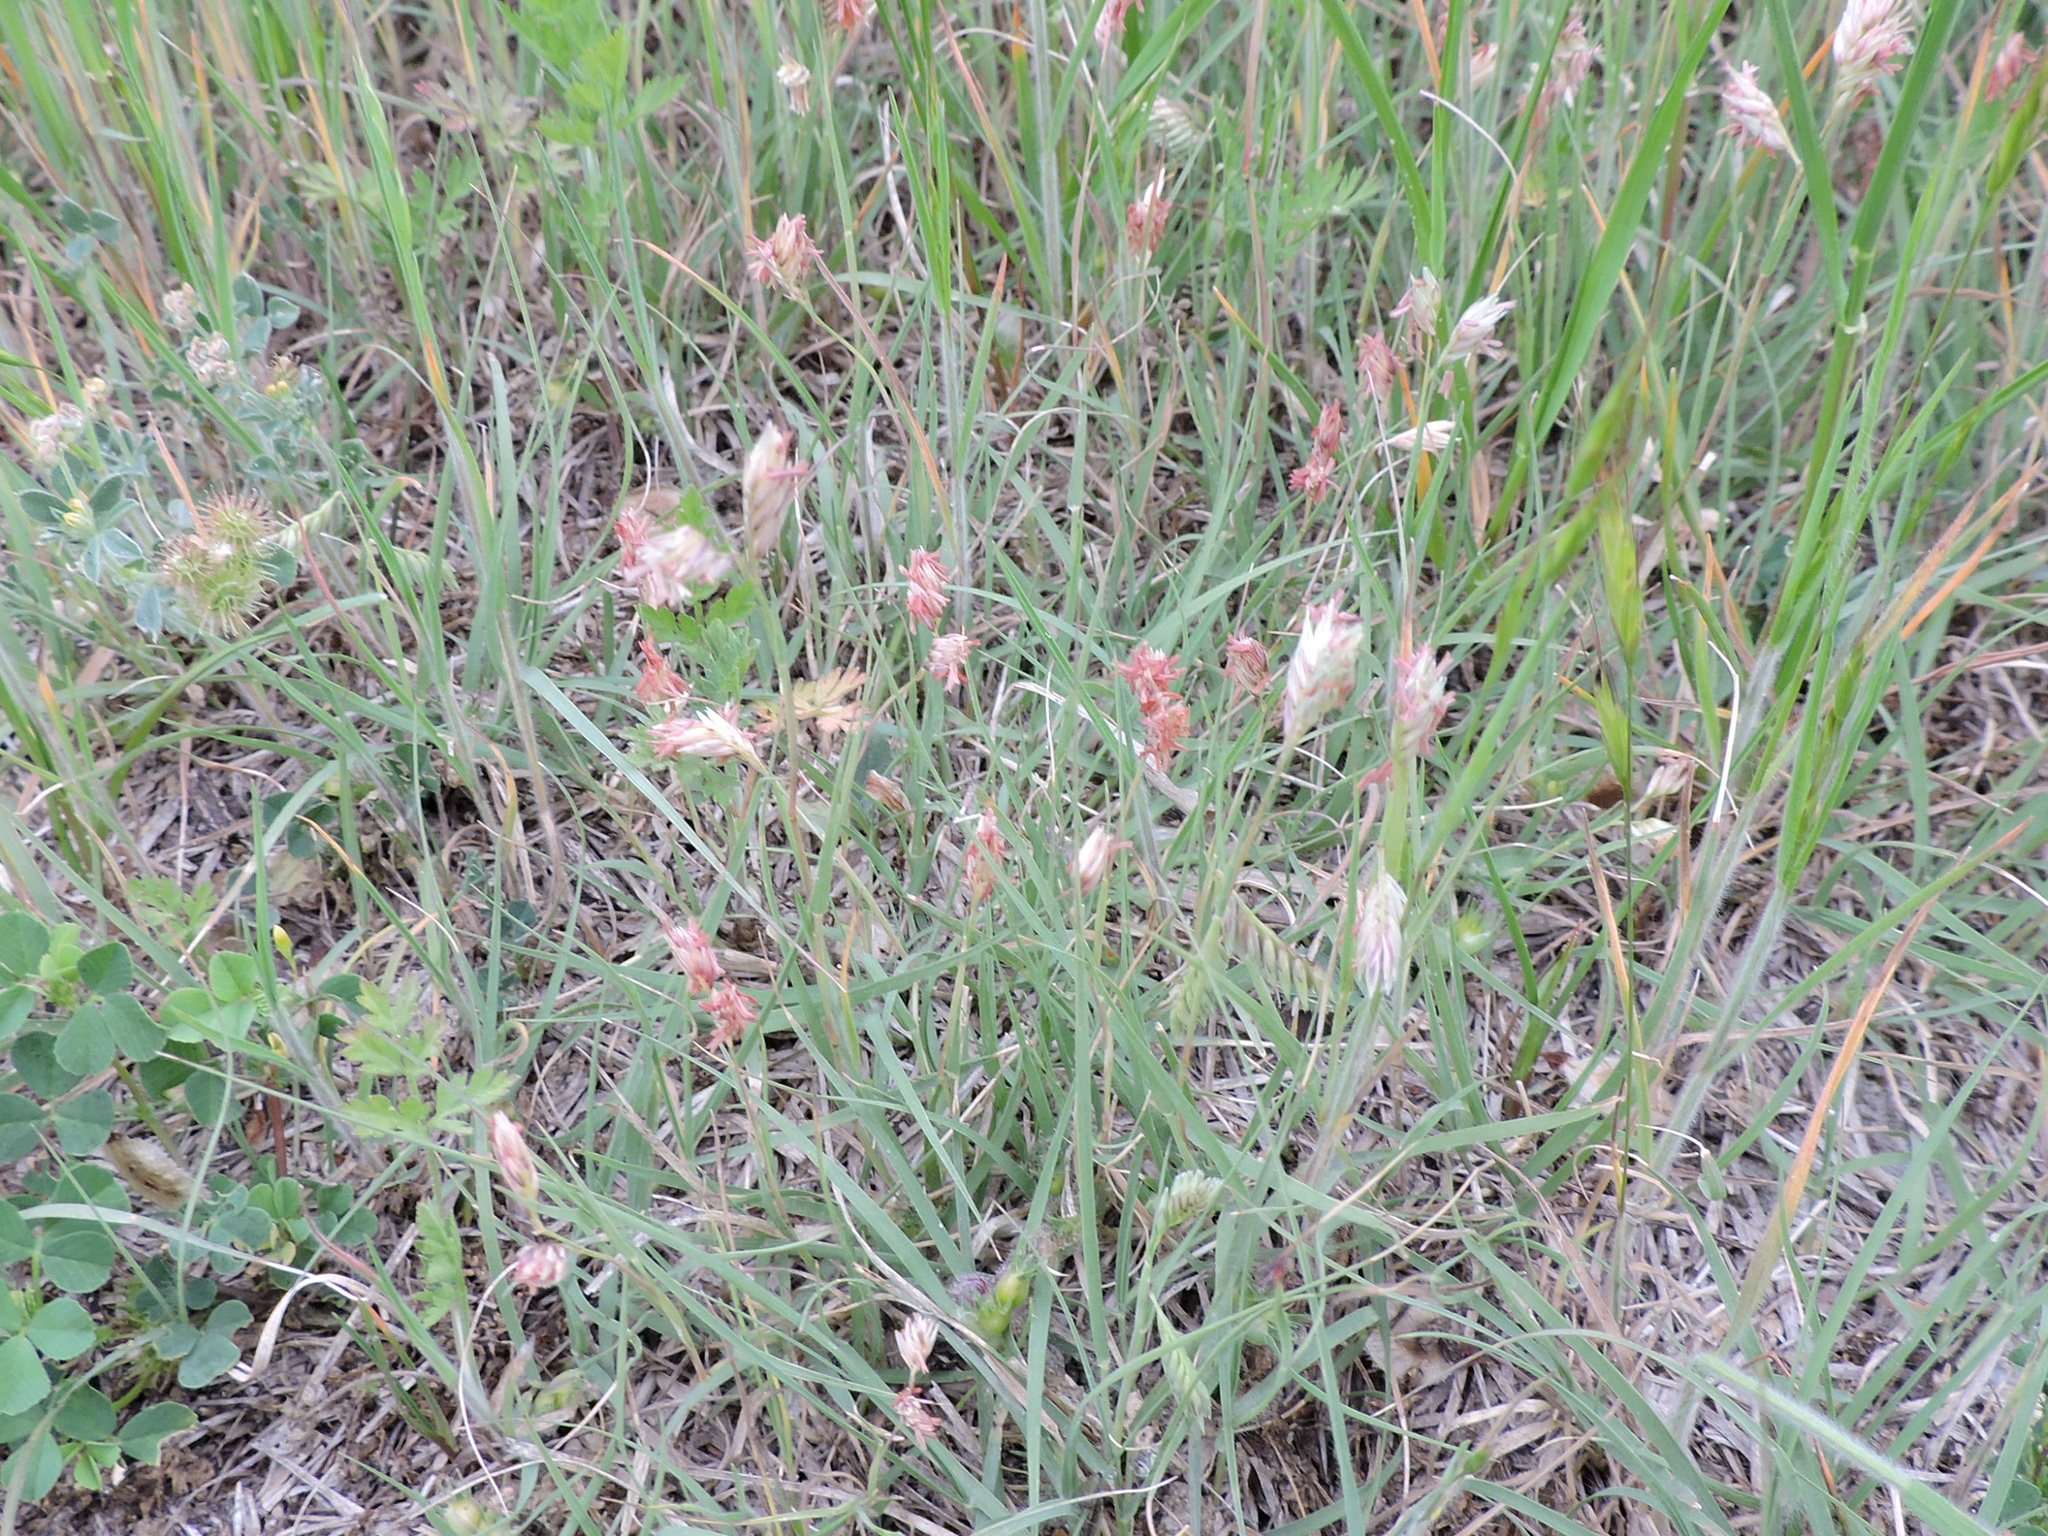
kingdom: Plantae
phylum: Tracheophyta
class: Liliopsida
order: Poales
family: Poaceae
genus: Bouteloua
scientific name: Bouteloua dactyloides
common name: Buffalo grass
